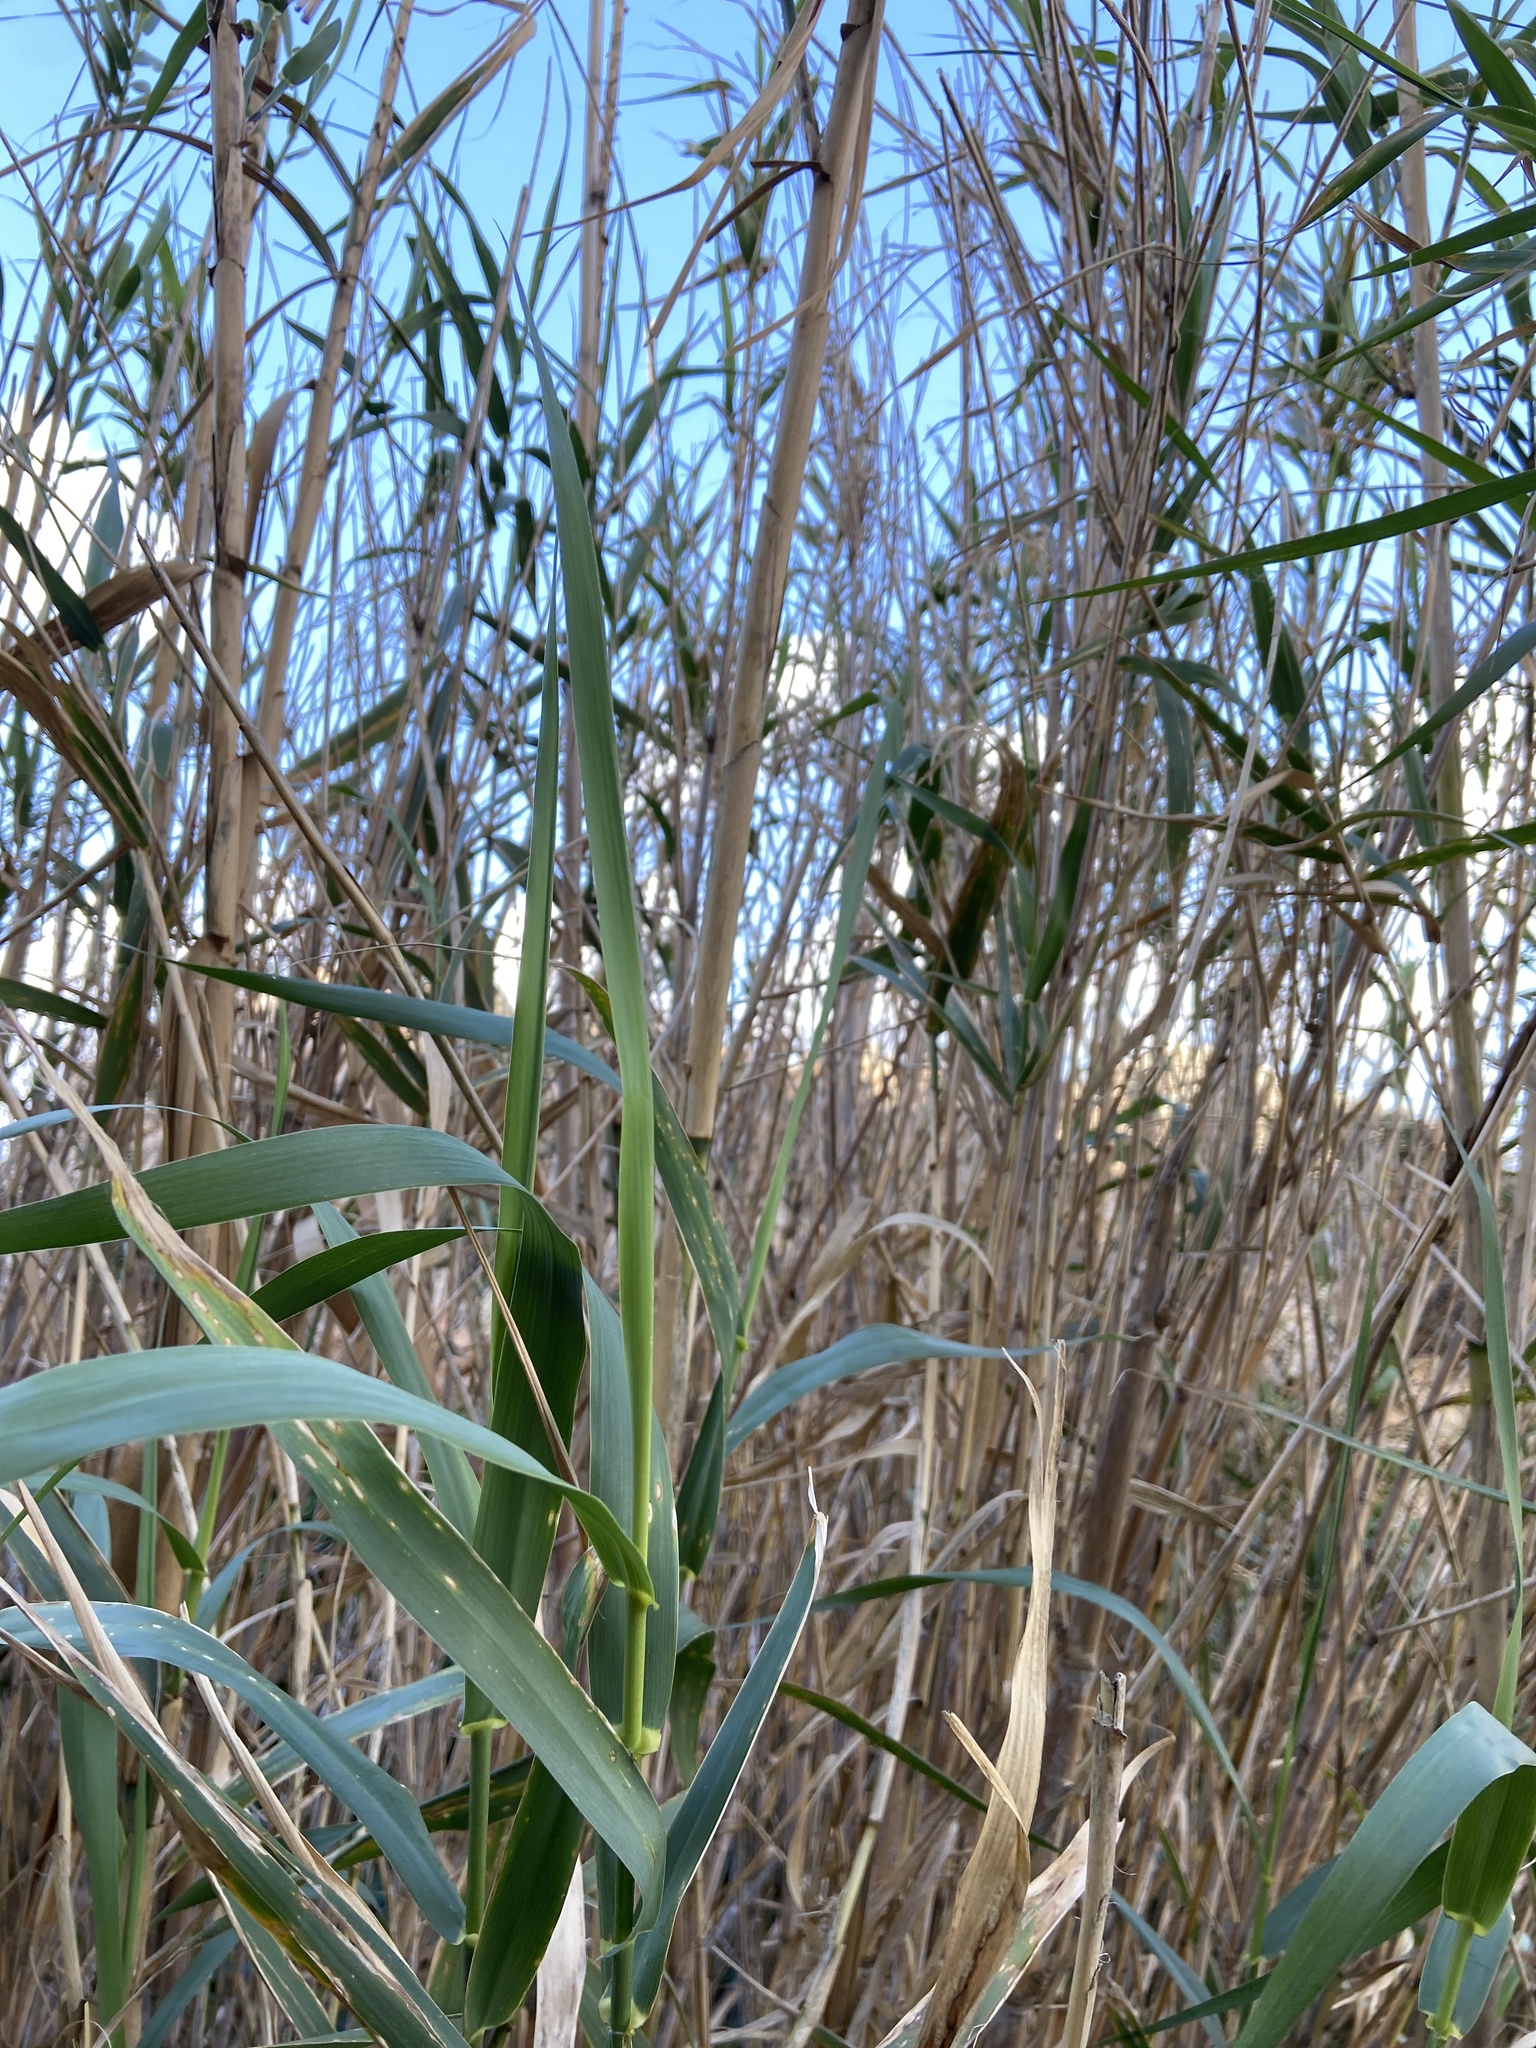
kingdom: Plantae
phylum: Tracheophyta
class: Liliopsida
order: Poales
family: Poaceae
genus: Arundo
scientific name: Arundo donax
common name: Giant reed
